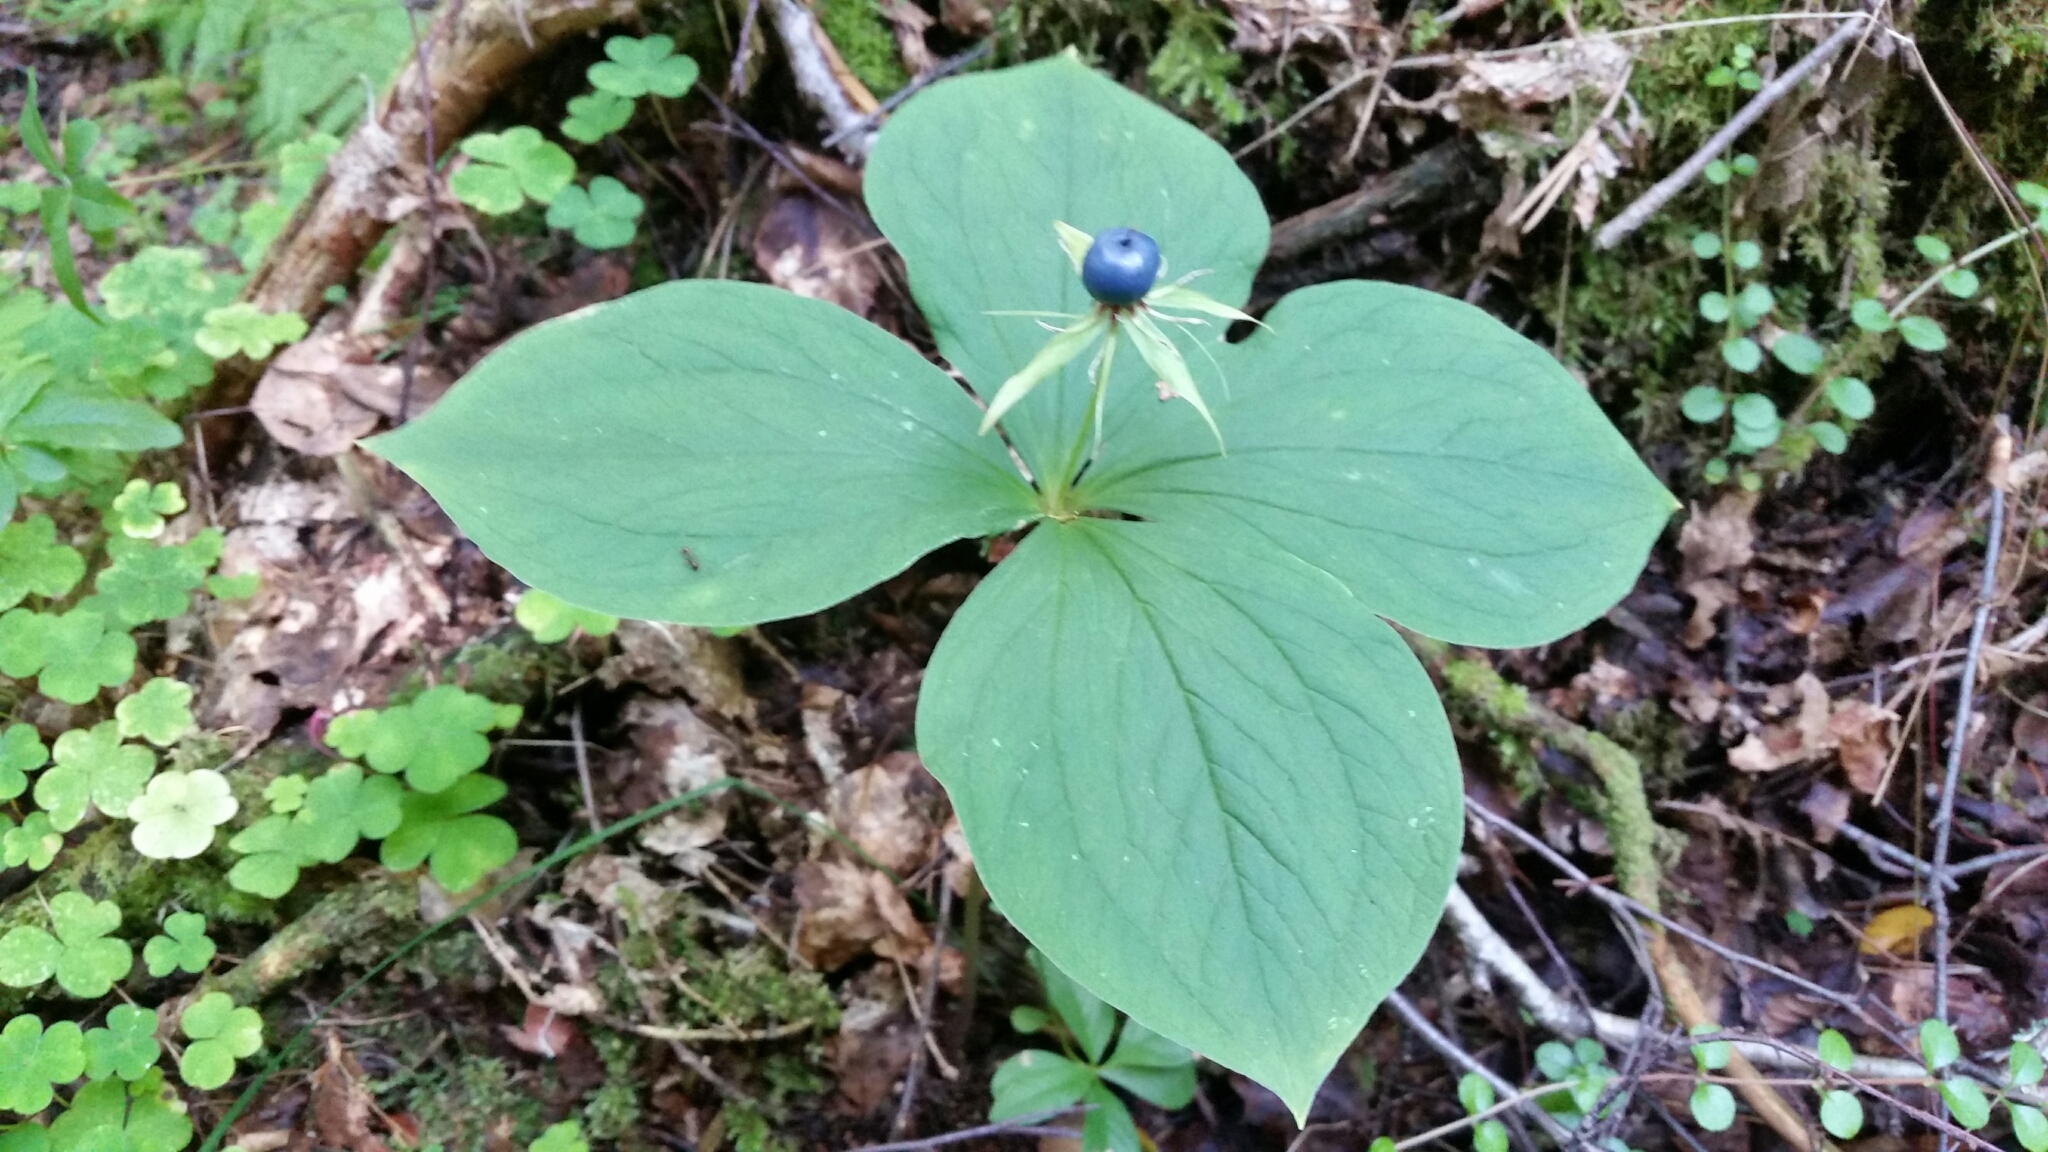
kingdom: Plantae
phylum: Tracheophyta
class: Liliopsida
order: Liliales
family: Melanthiaceae
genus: Paris
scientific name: Paris quadrifolia
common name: Herb-paris
